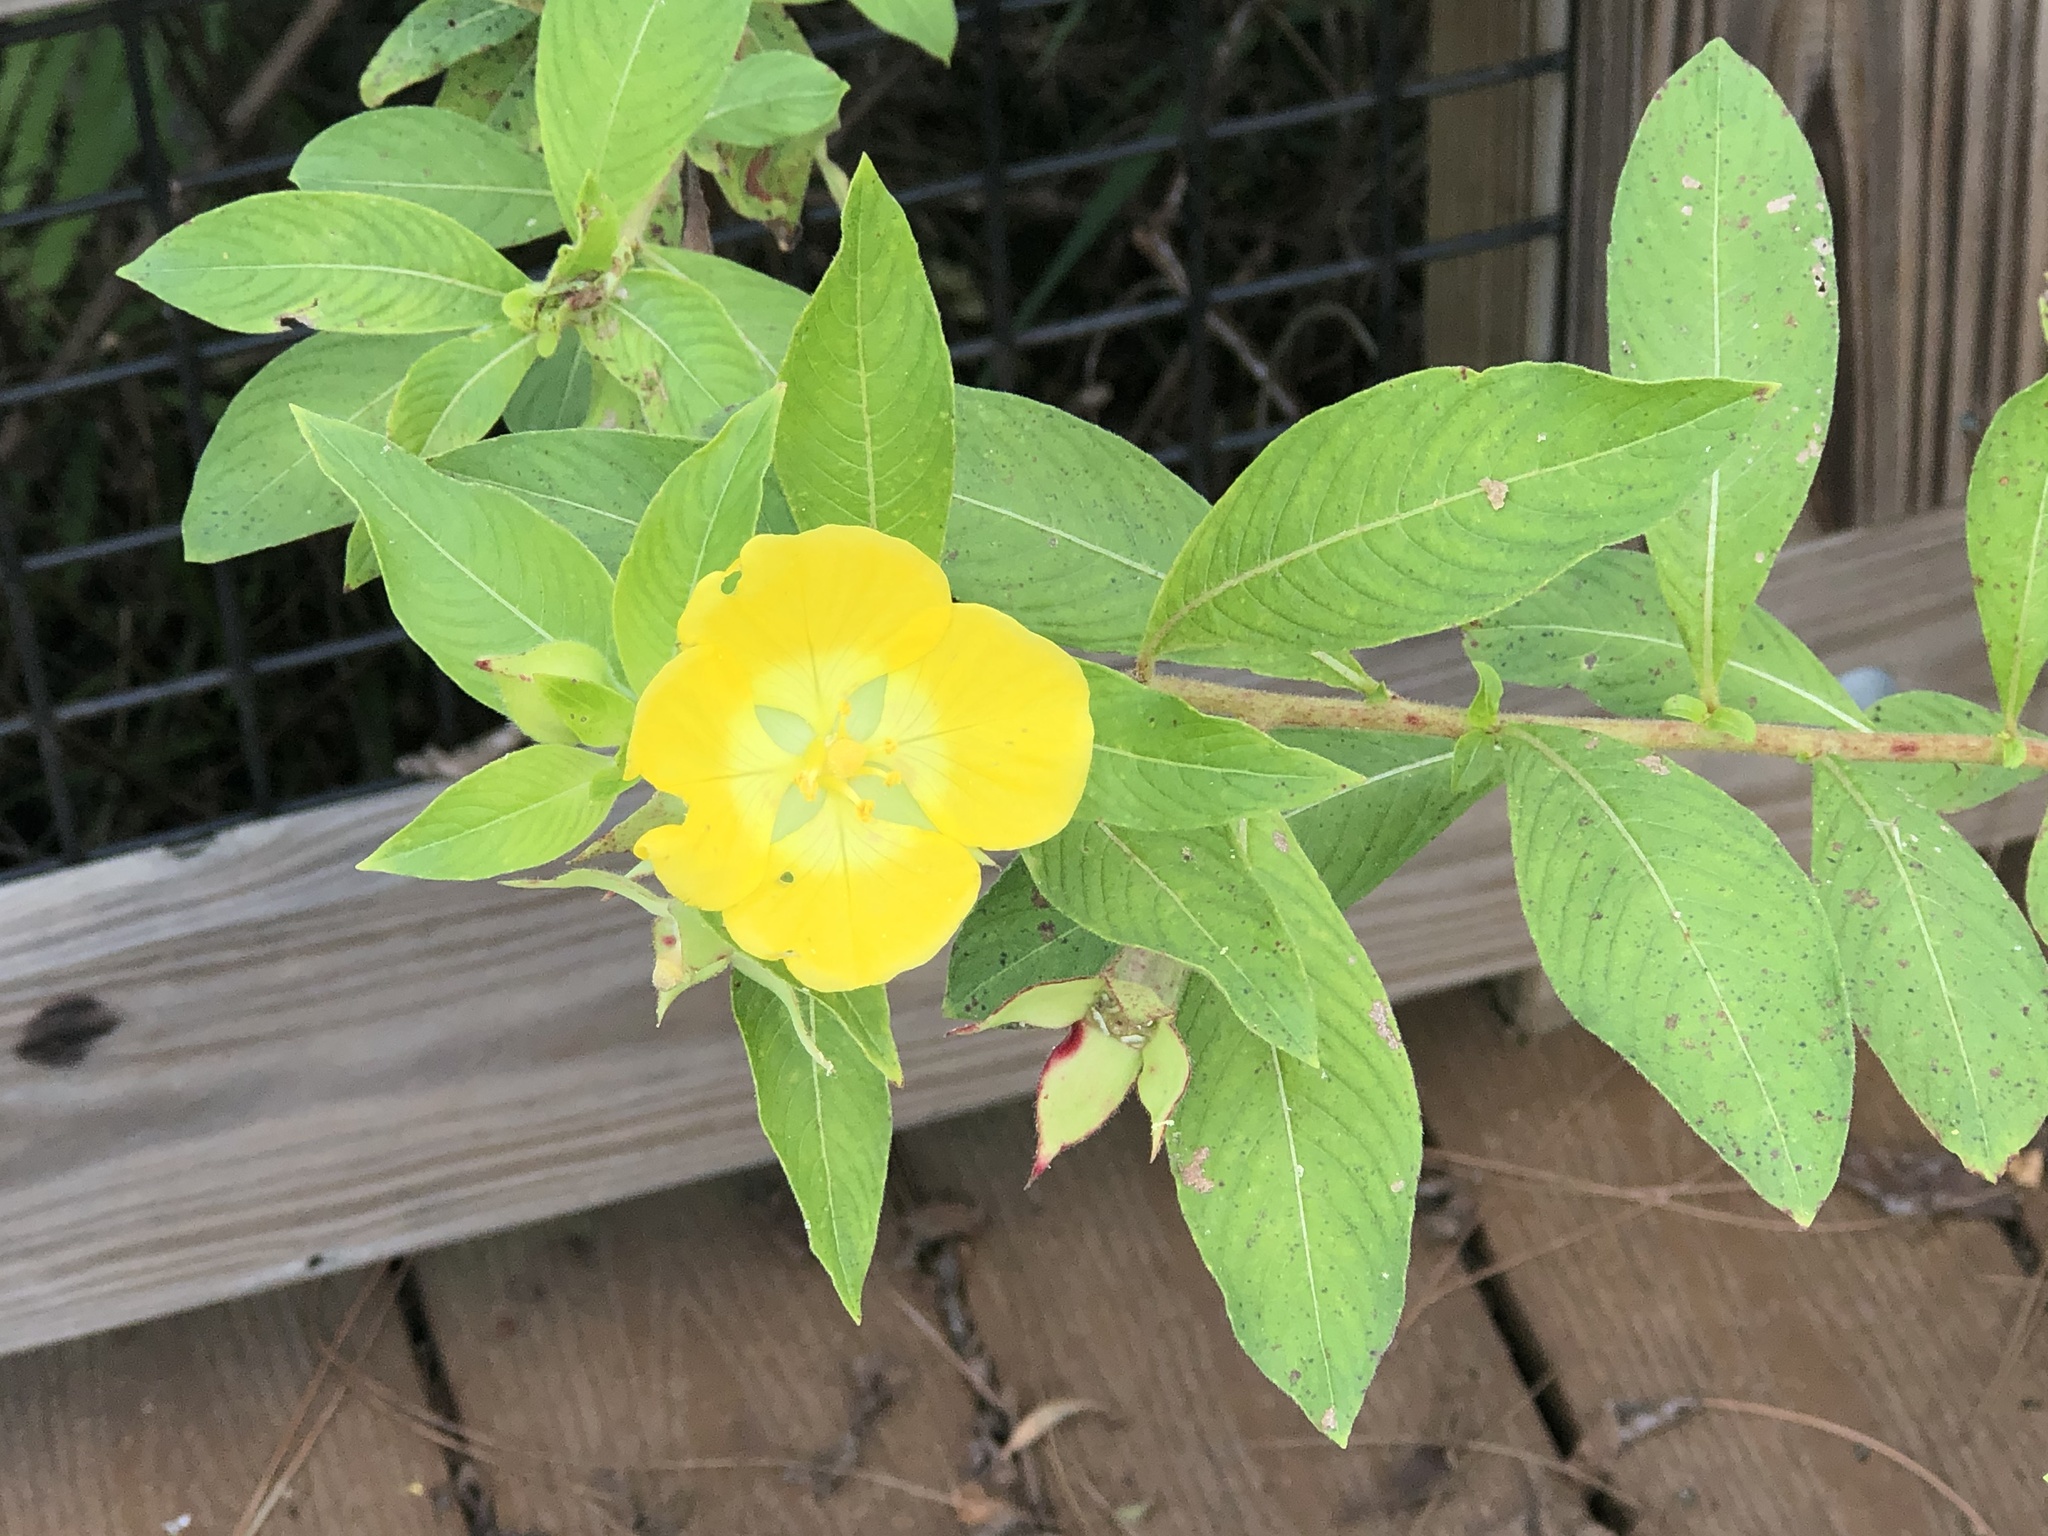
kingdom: Plantae
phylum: Tracheophyta
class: Magnoliopsida
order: Myrtales
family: Onagraceae
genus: Ludwigia
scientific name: Ludwigia peruviana
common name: Peruvian primrose-willow
